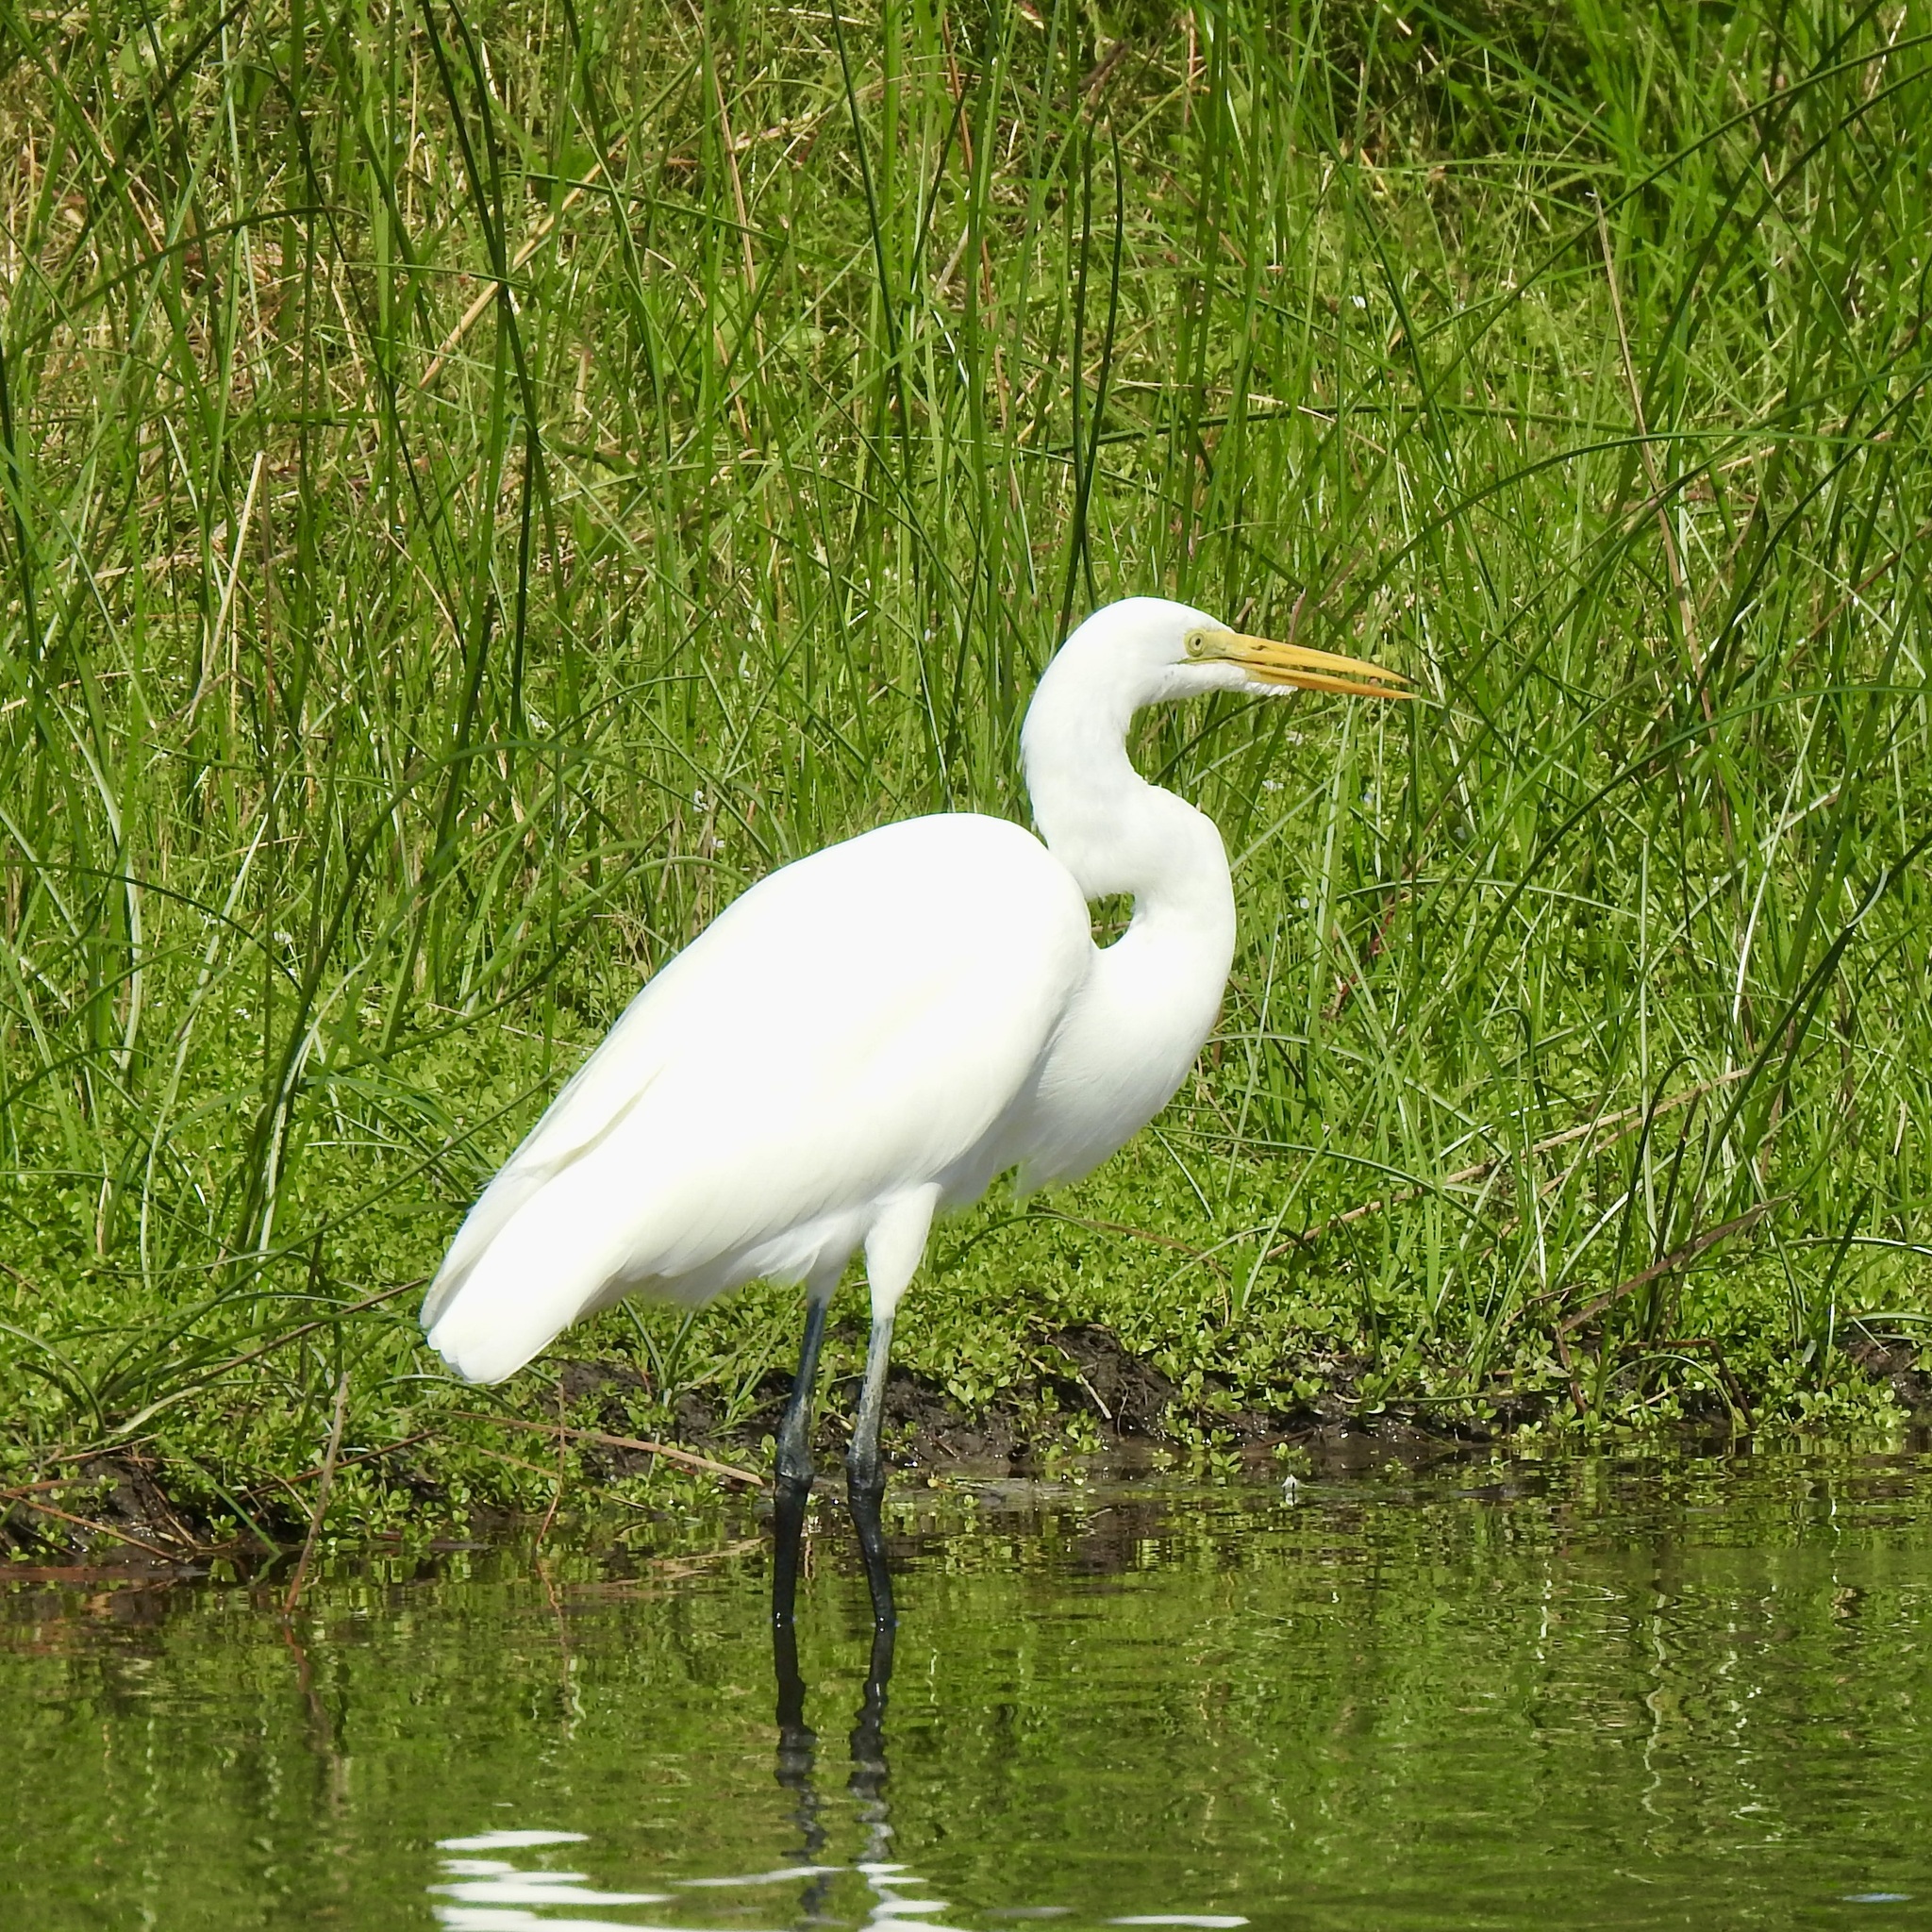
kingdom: Animalia
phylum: Chordata
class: Aves
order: Pelecaniformes
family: Ardeidae
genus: Ardea
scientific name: Ardea alba
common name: Great egret
